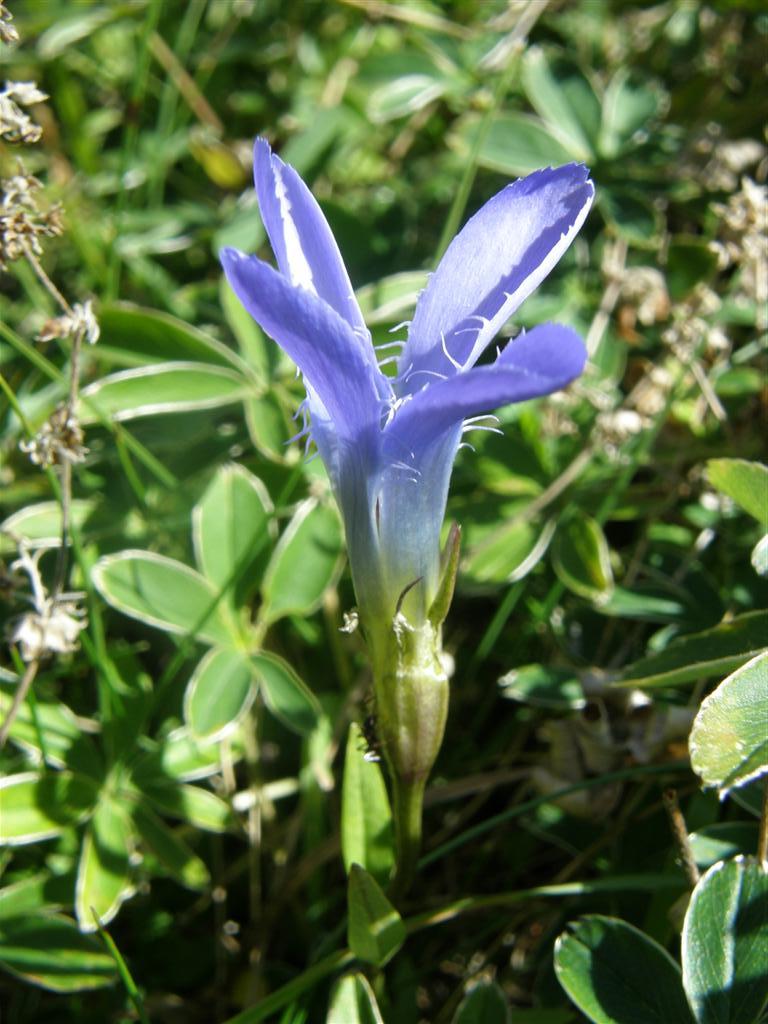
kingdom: Plantae
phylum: Tracheophyta
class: Magnoliopsida
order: Gentianales
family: Gentianaceae
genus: Gentianopsis
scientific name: Gentianopsis ciliata
